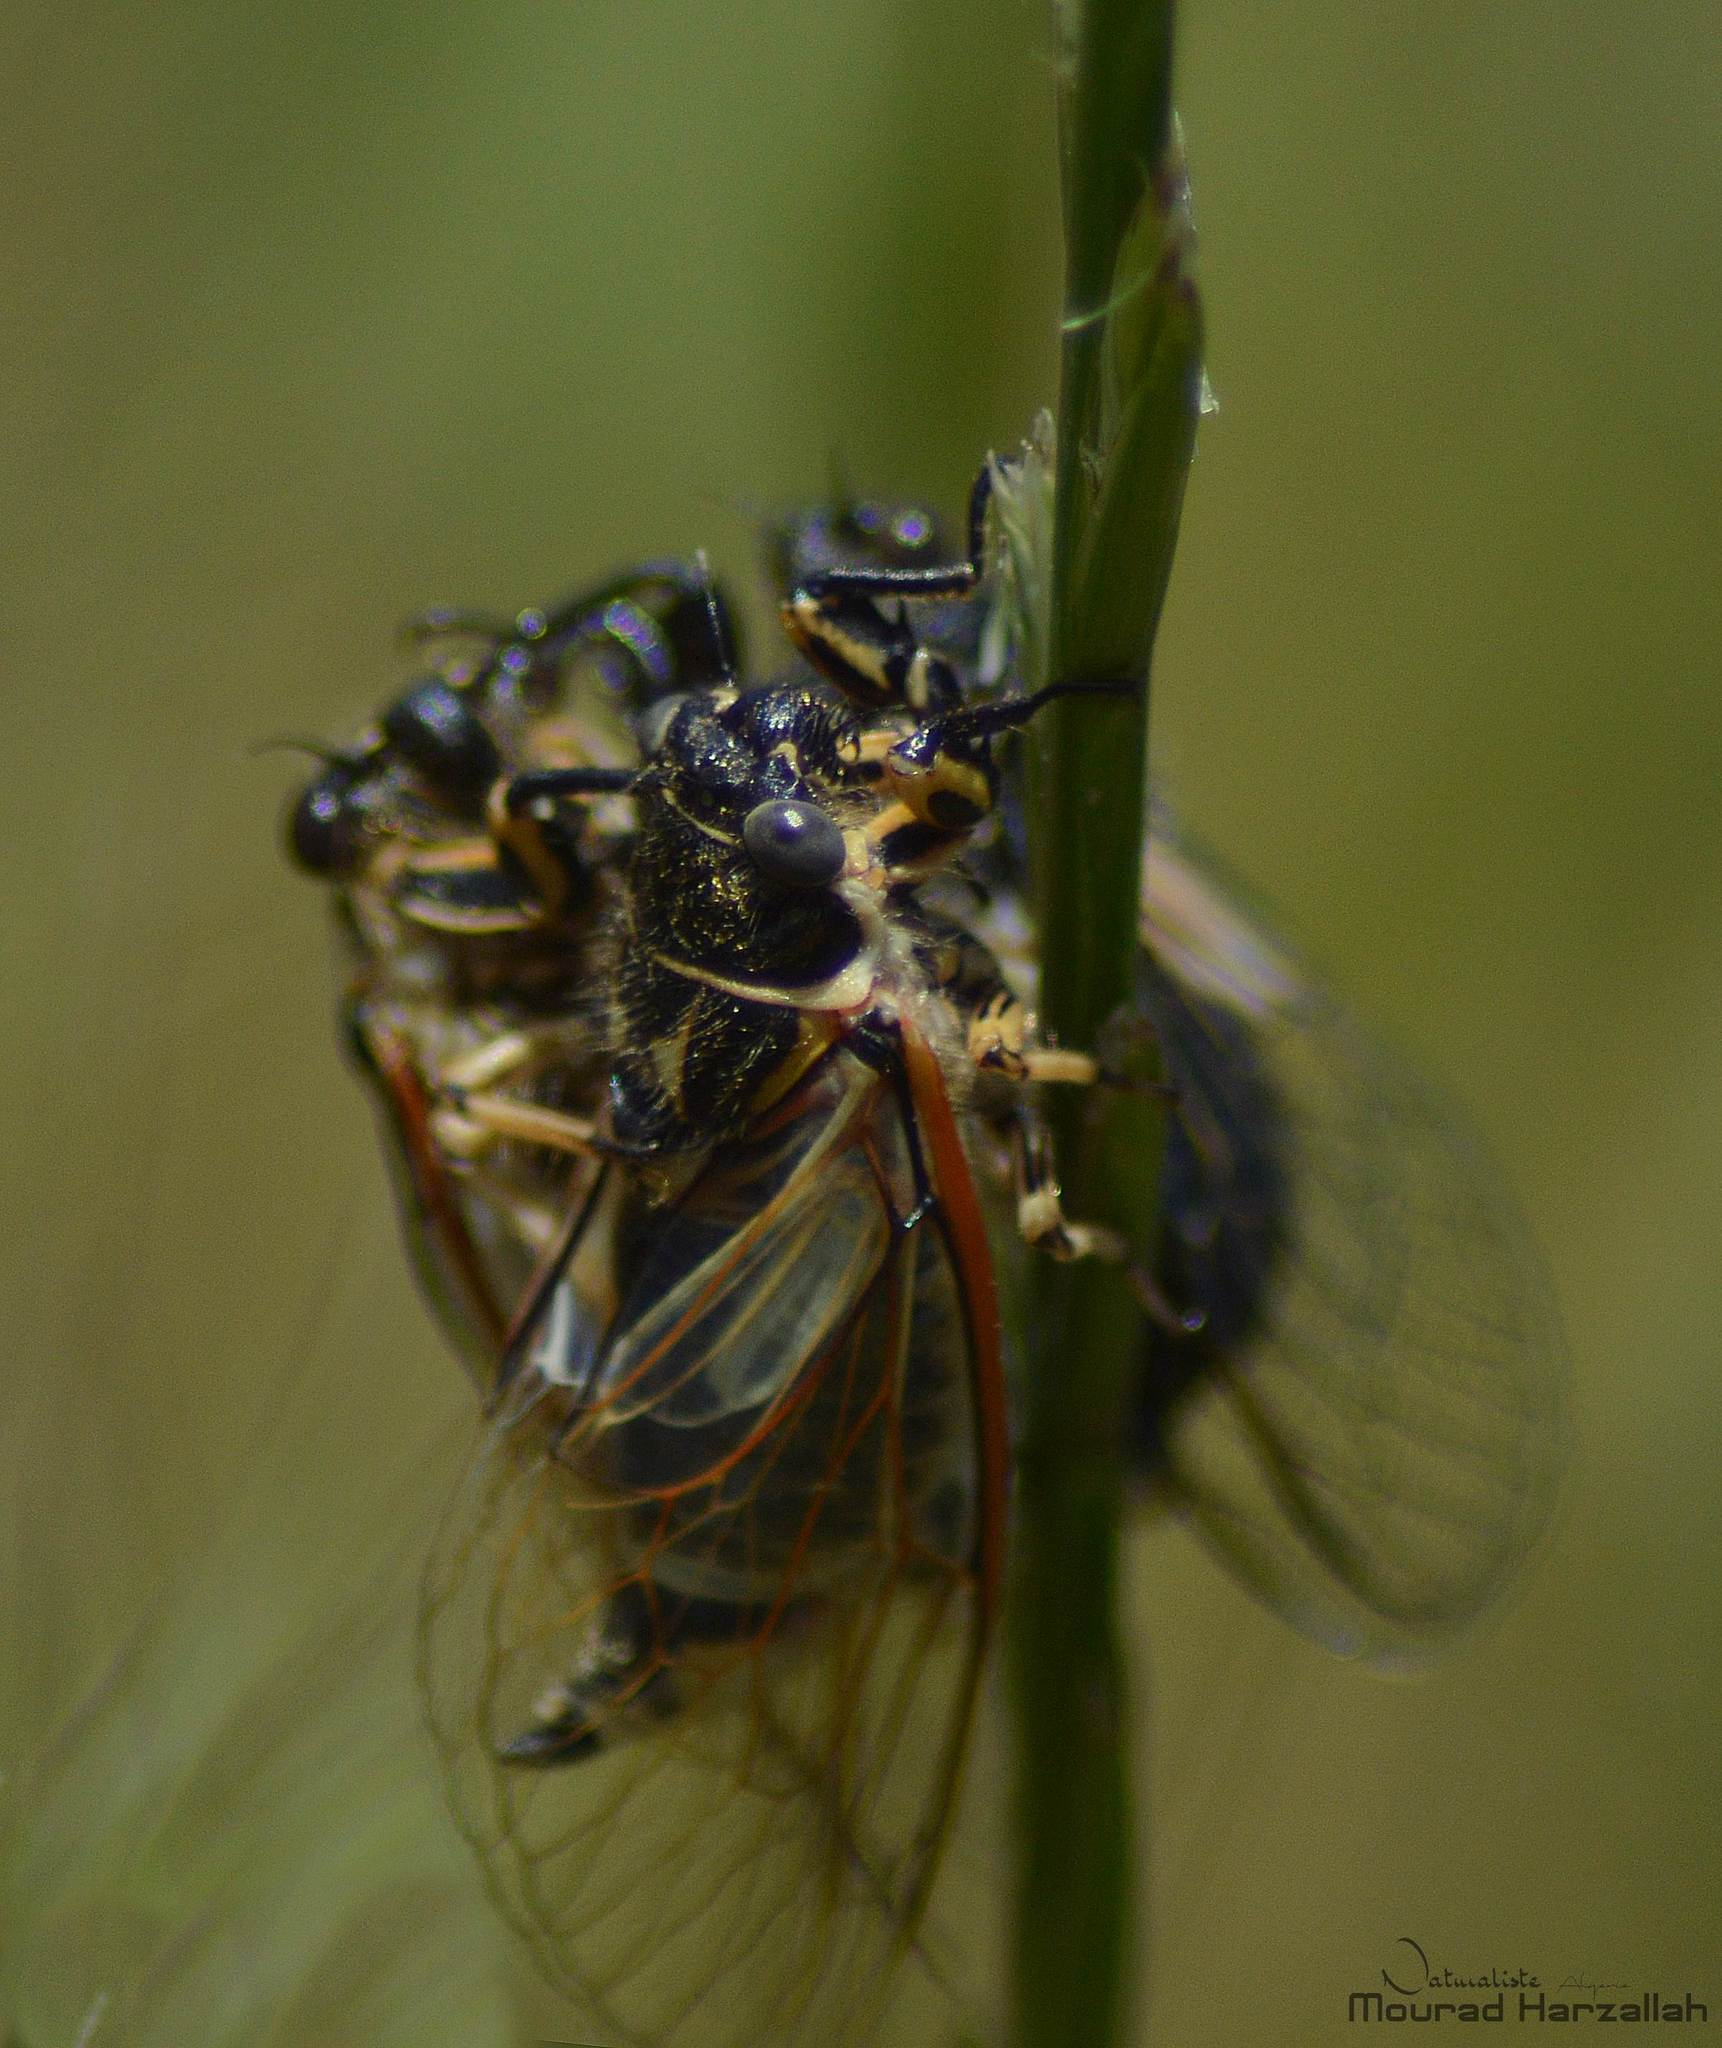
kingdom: Animalia
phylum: Arthropoda
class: Insecta
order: Hemiptera
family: Cicadidae
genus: Euryphara
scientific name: Euryphara cantans
